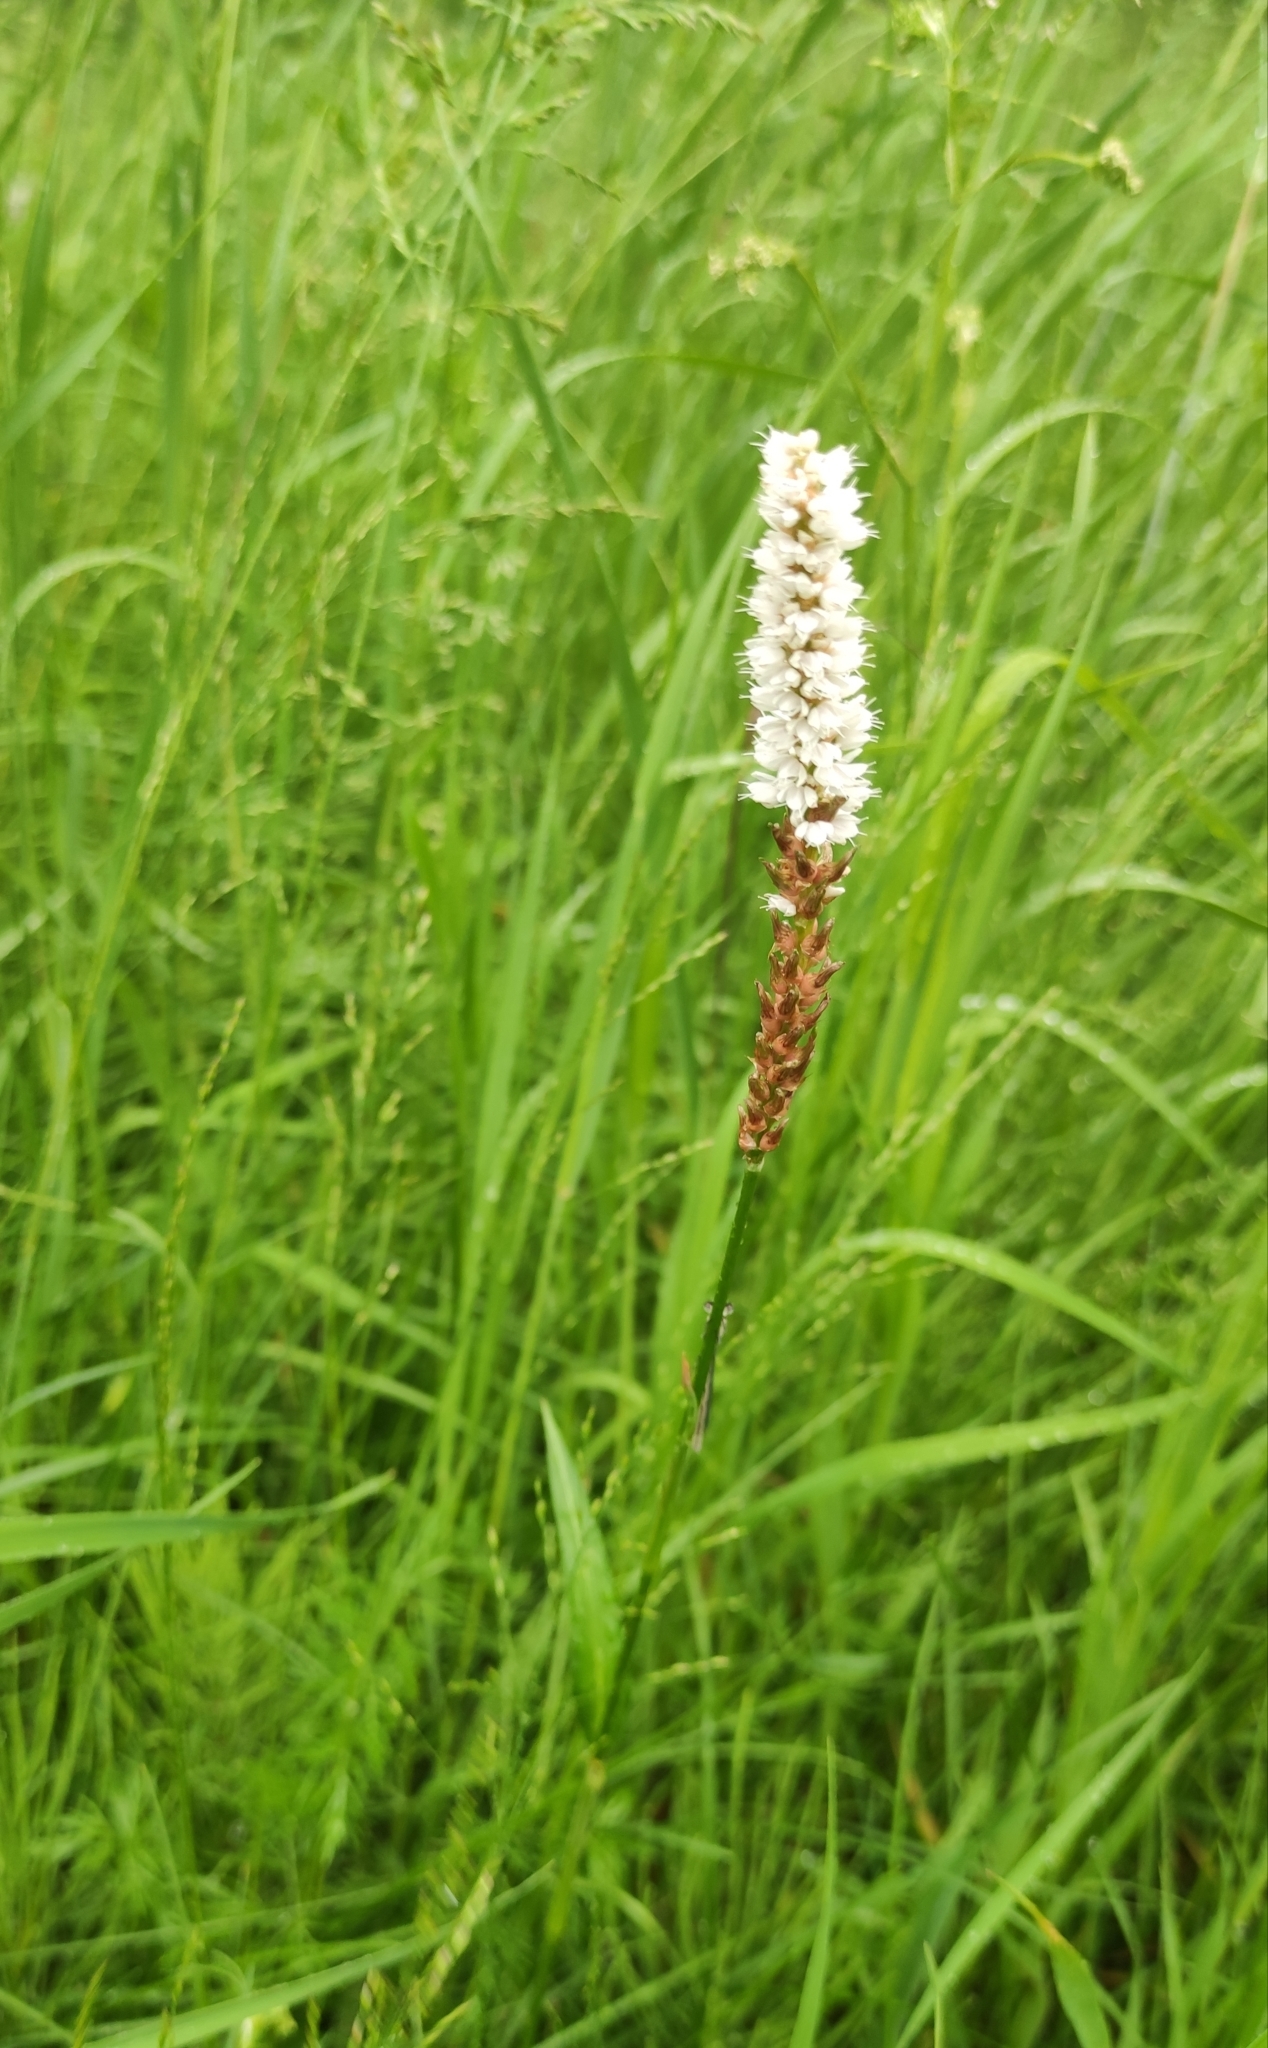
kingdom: Plantae
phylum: Tracheophyta
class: Magnoliopsida
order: Caryophyllales
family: Polygonaceae
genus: Bistorta
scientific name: Bistorta vivipara
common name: Alpine bistort
